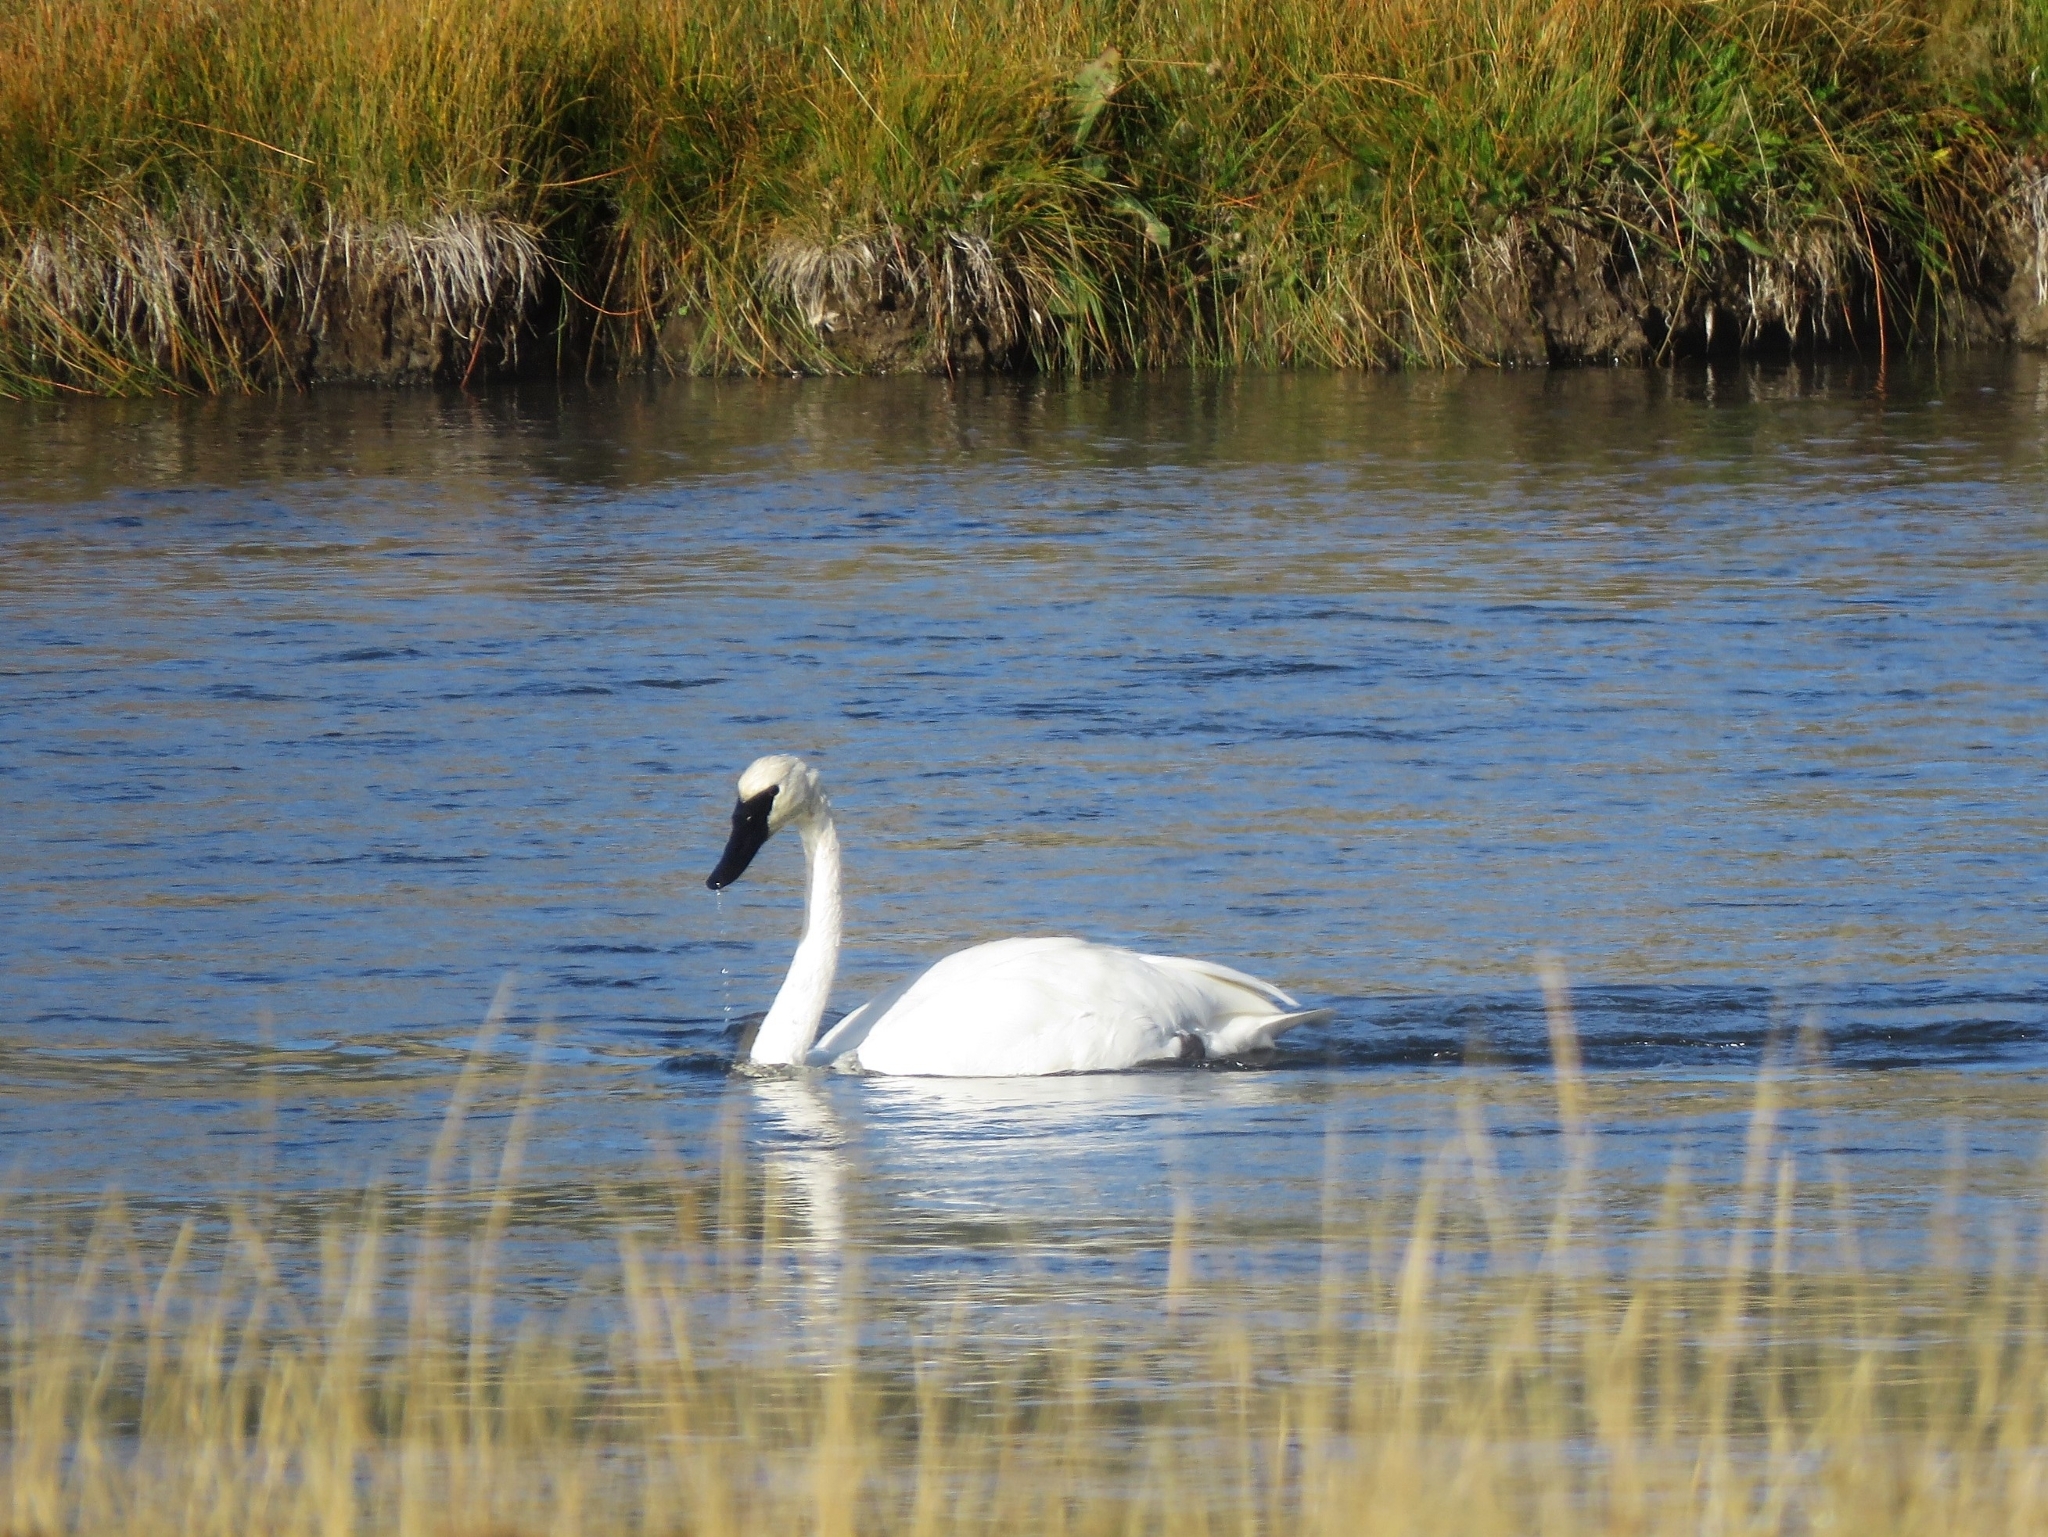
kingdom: Animalia
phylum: Chordata
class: Aves
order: Anseriformes
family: Anatidae
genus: Cygnus
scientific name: Cygnus buccinator
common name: Trumpeter swan
